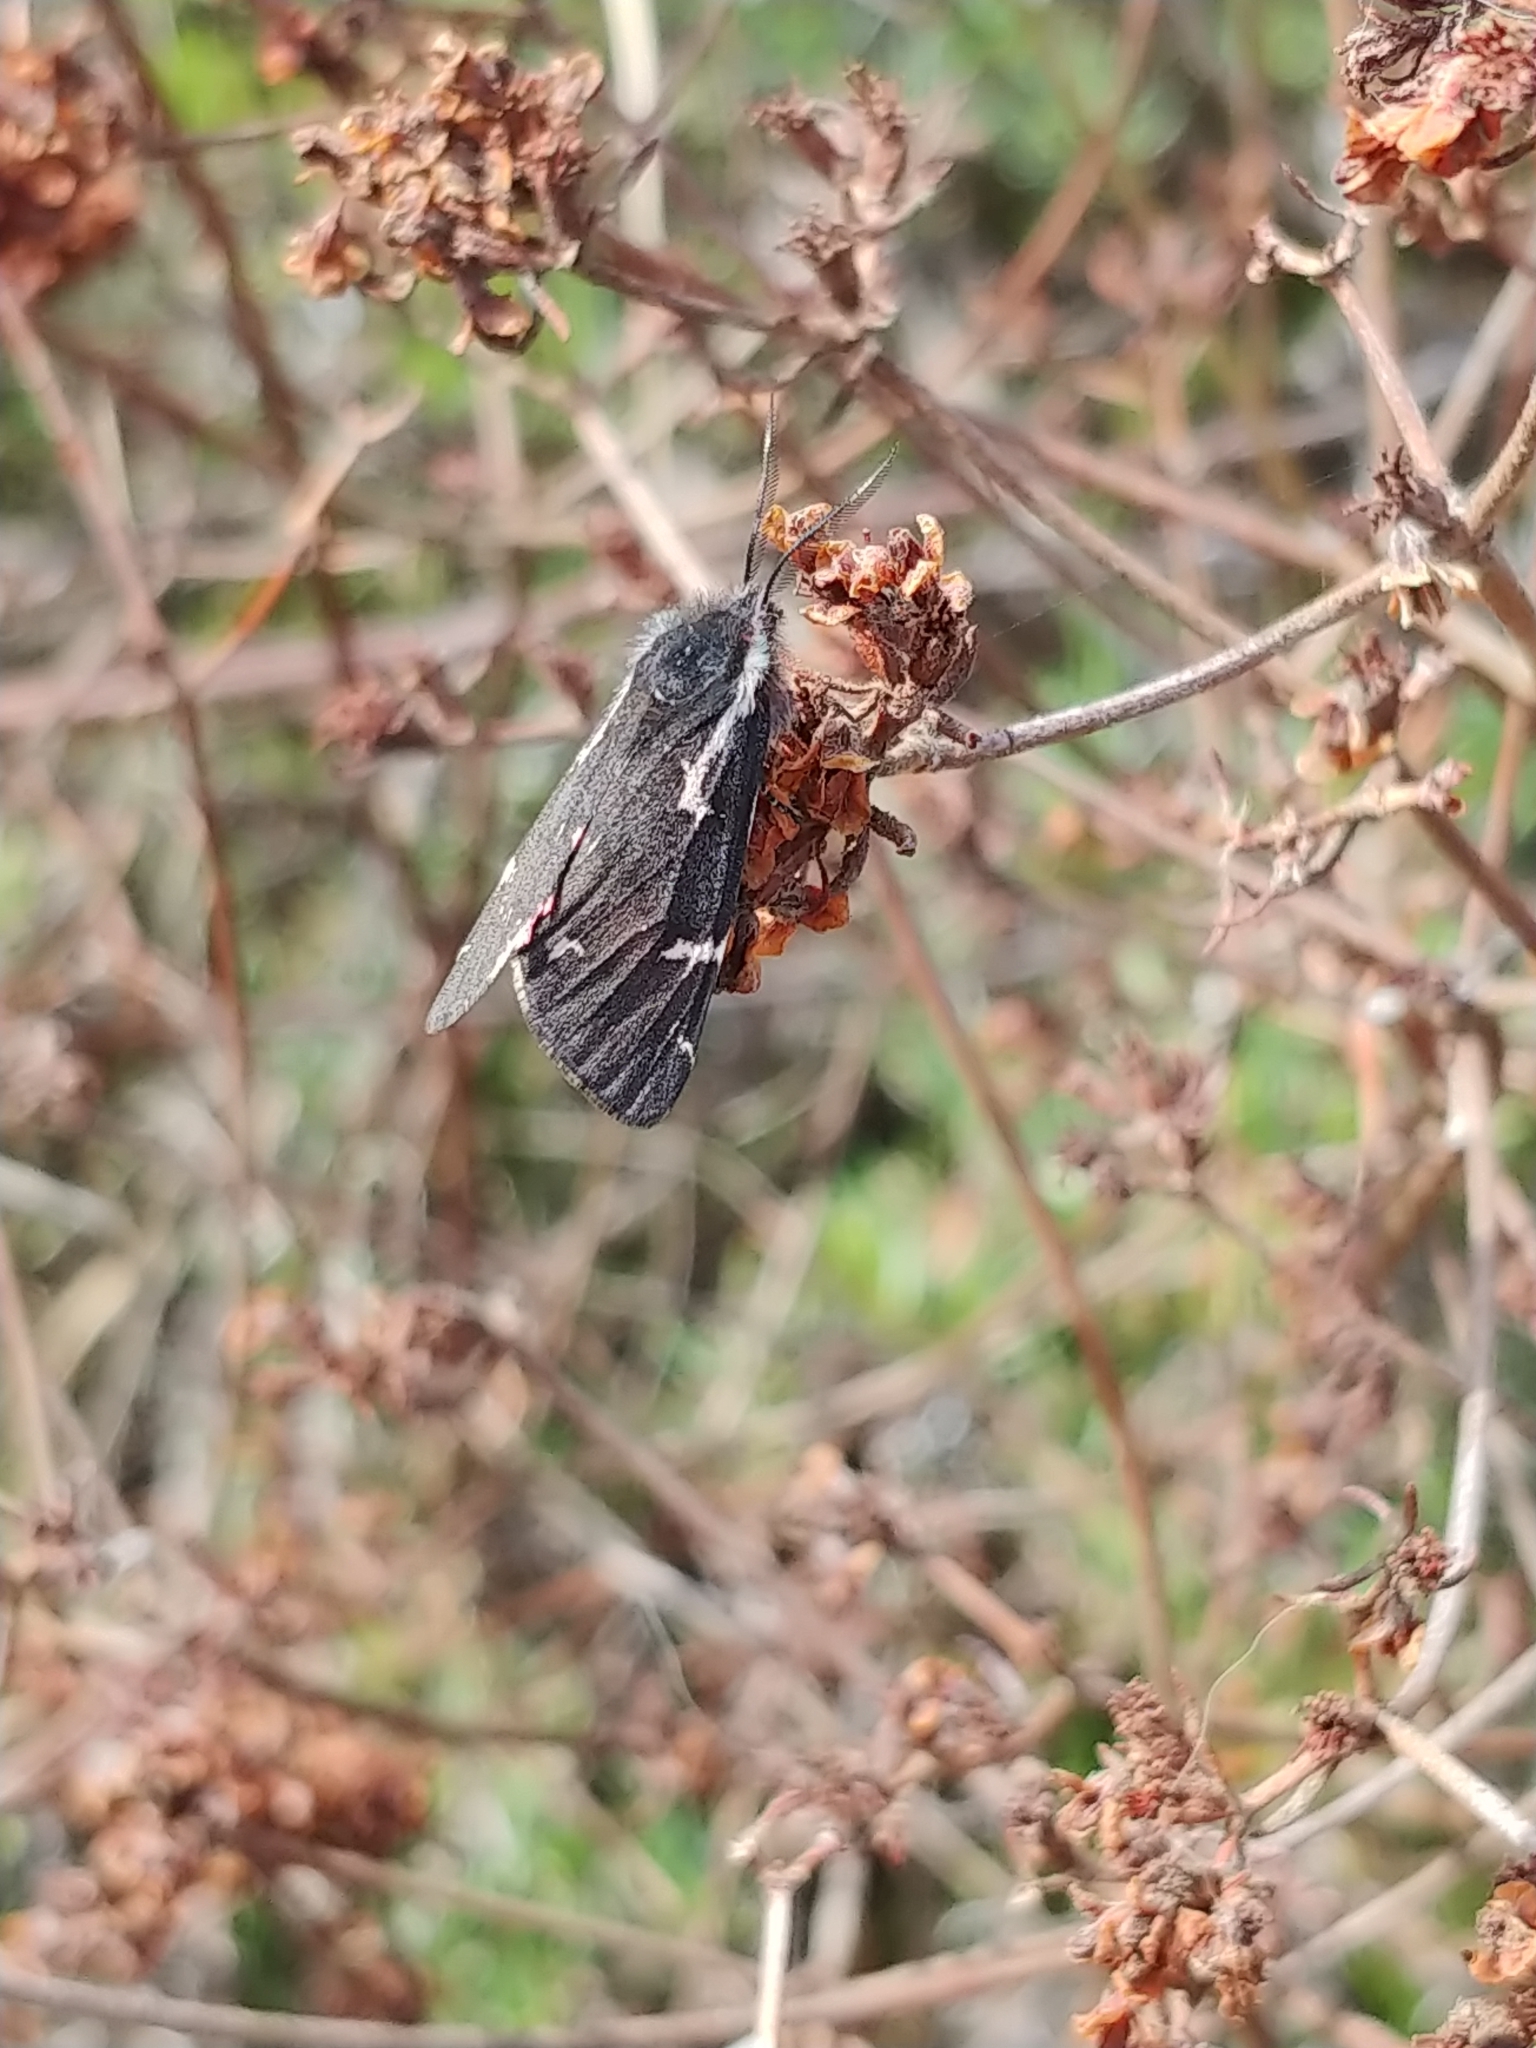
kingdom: Animalia
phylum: Arthropoda
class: Insecta
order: Lepidoptera
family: Erebidae
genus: Leptarctia
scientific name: Leptarctia californiae
